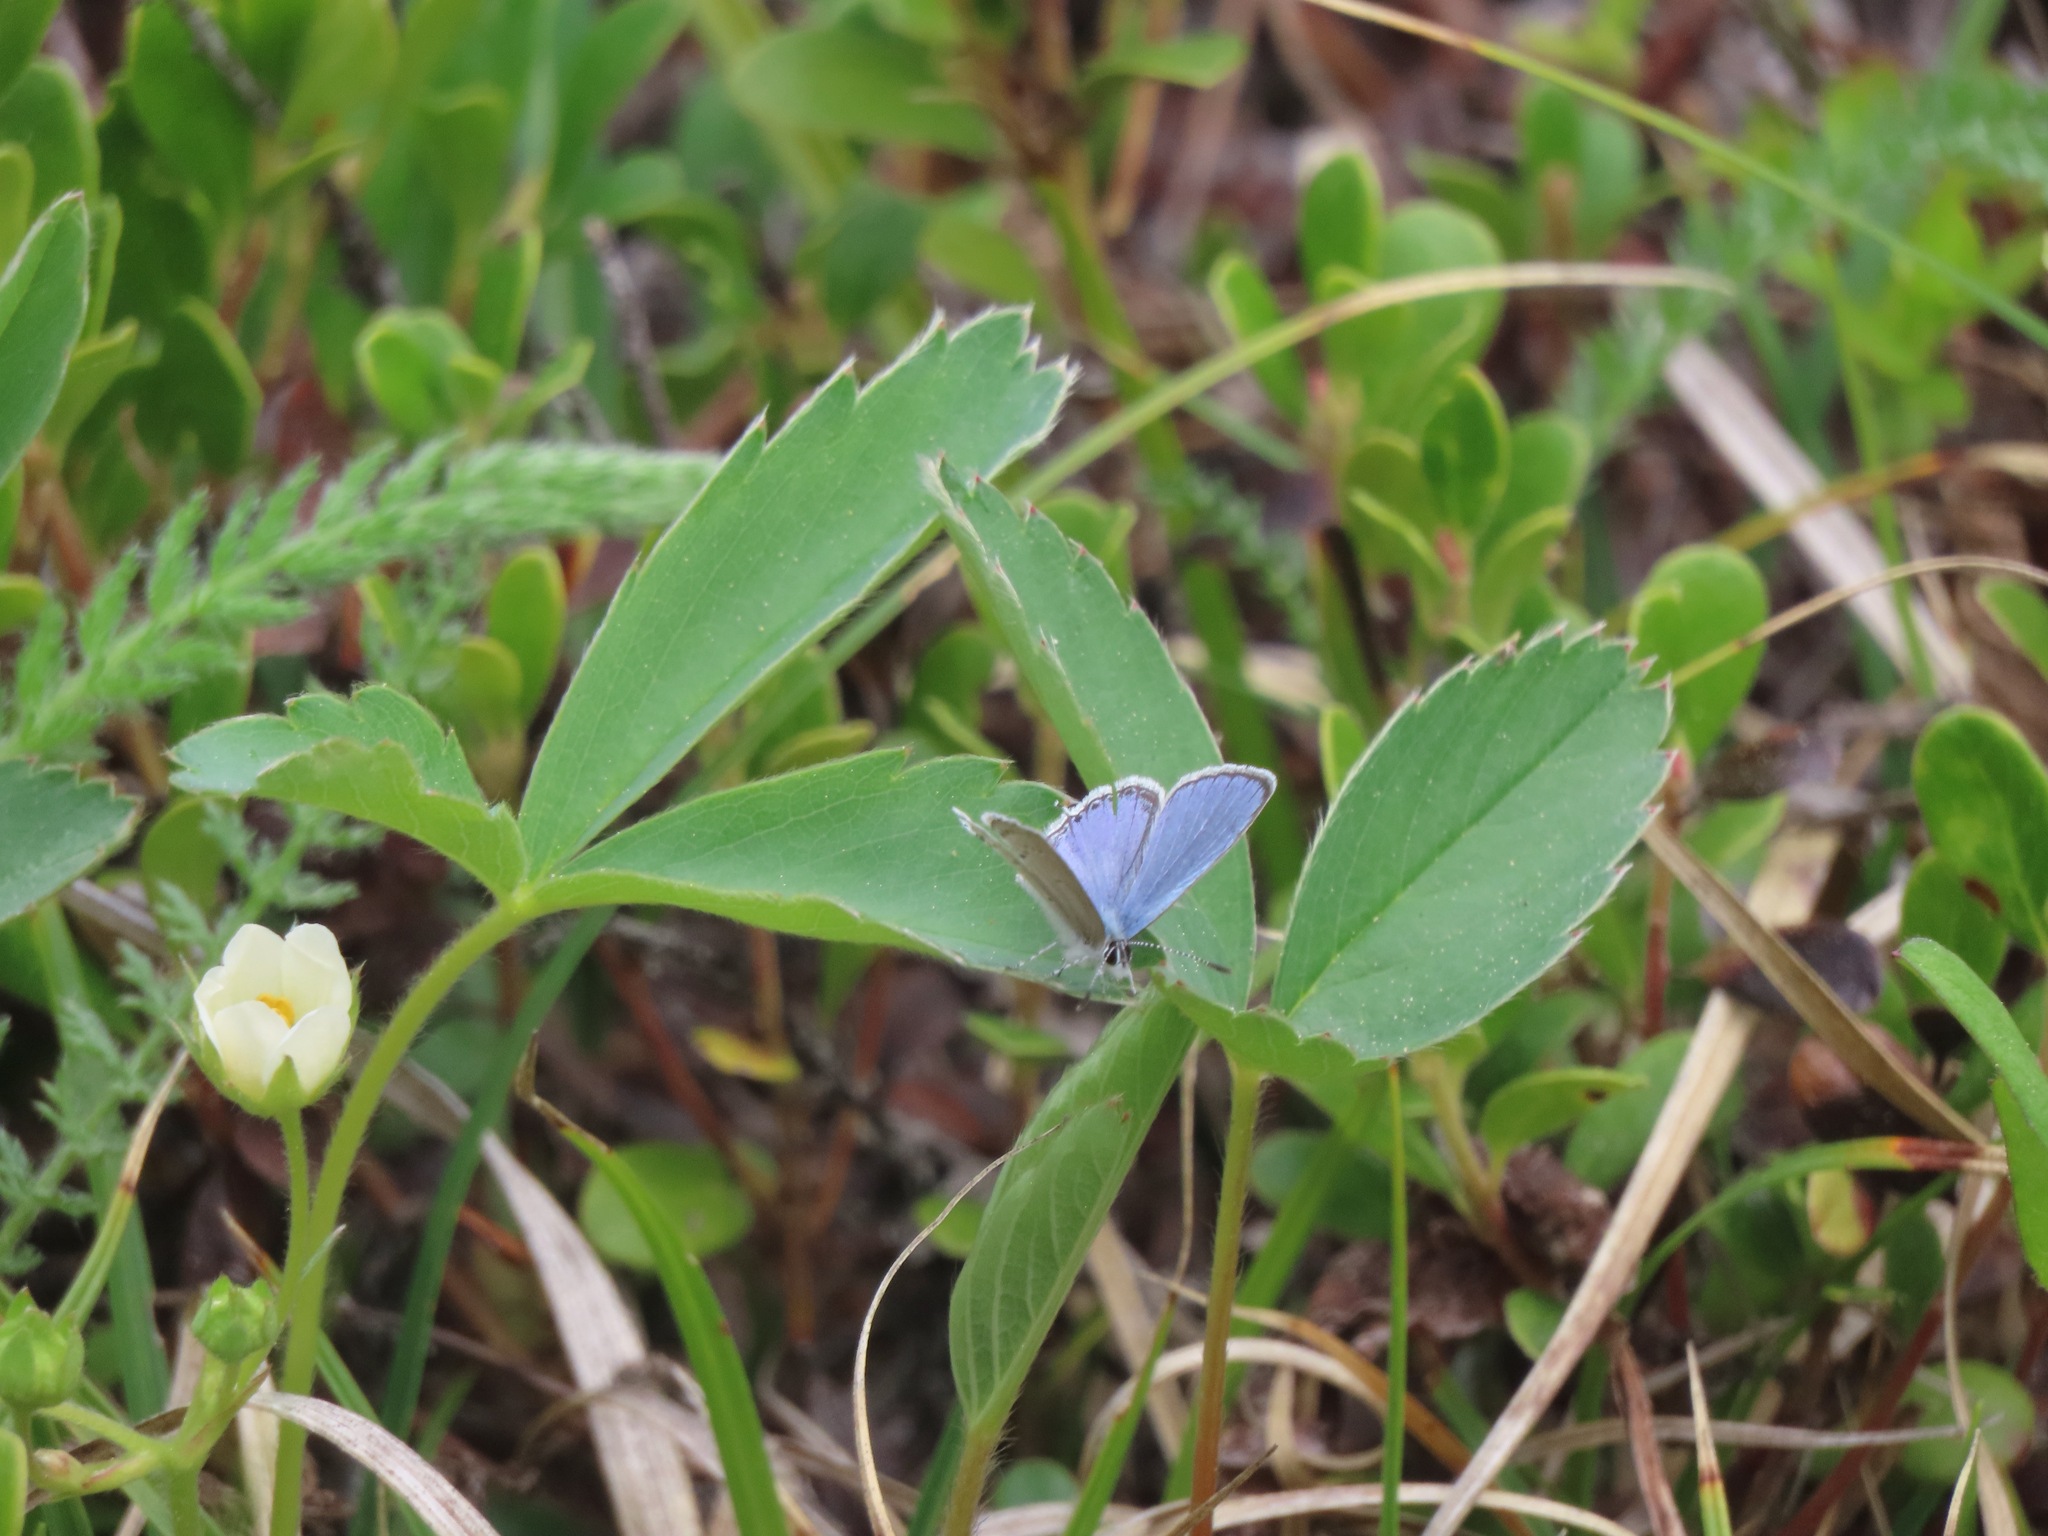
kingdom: Animalia
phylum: Arthropoda
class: Insecta
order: Lepidoptera
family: Lycaenidae
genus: Elkalyce
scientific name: Elkalyce amyntula
